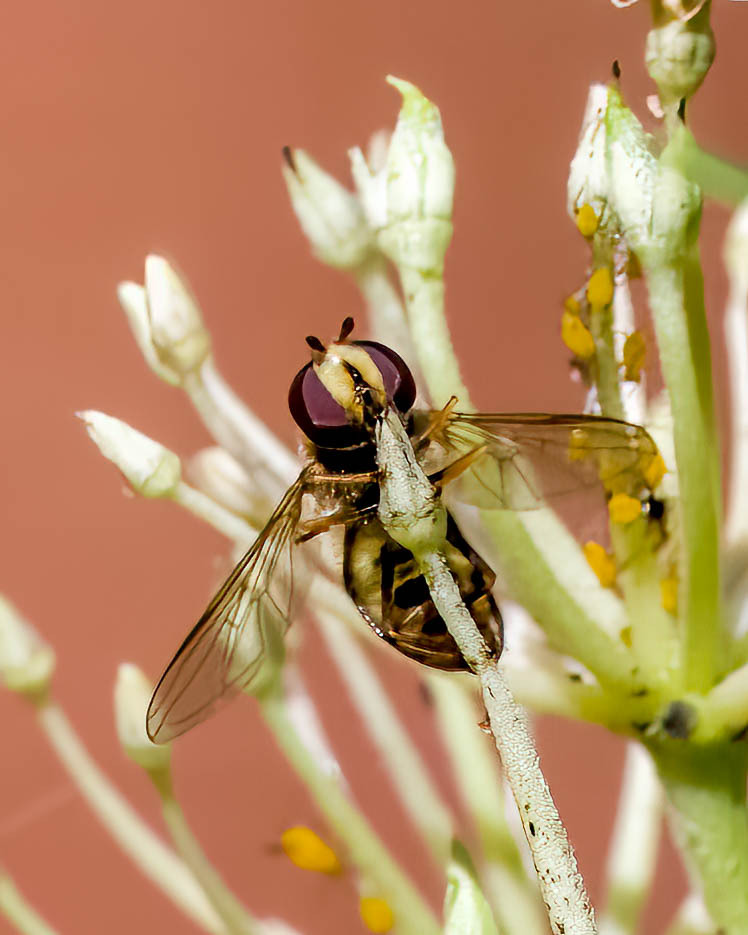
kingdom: Animalia
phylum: Arthropoda
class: Insecta
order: Diptera
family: Syrphidae
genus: Eupeodes
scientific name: Eupeodes
